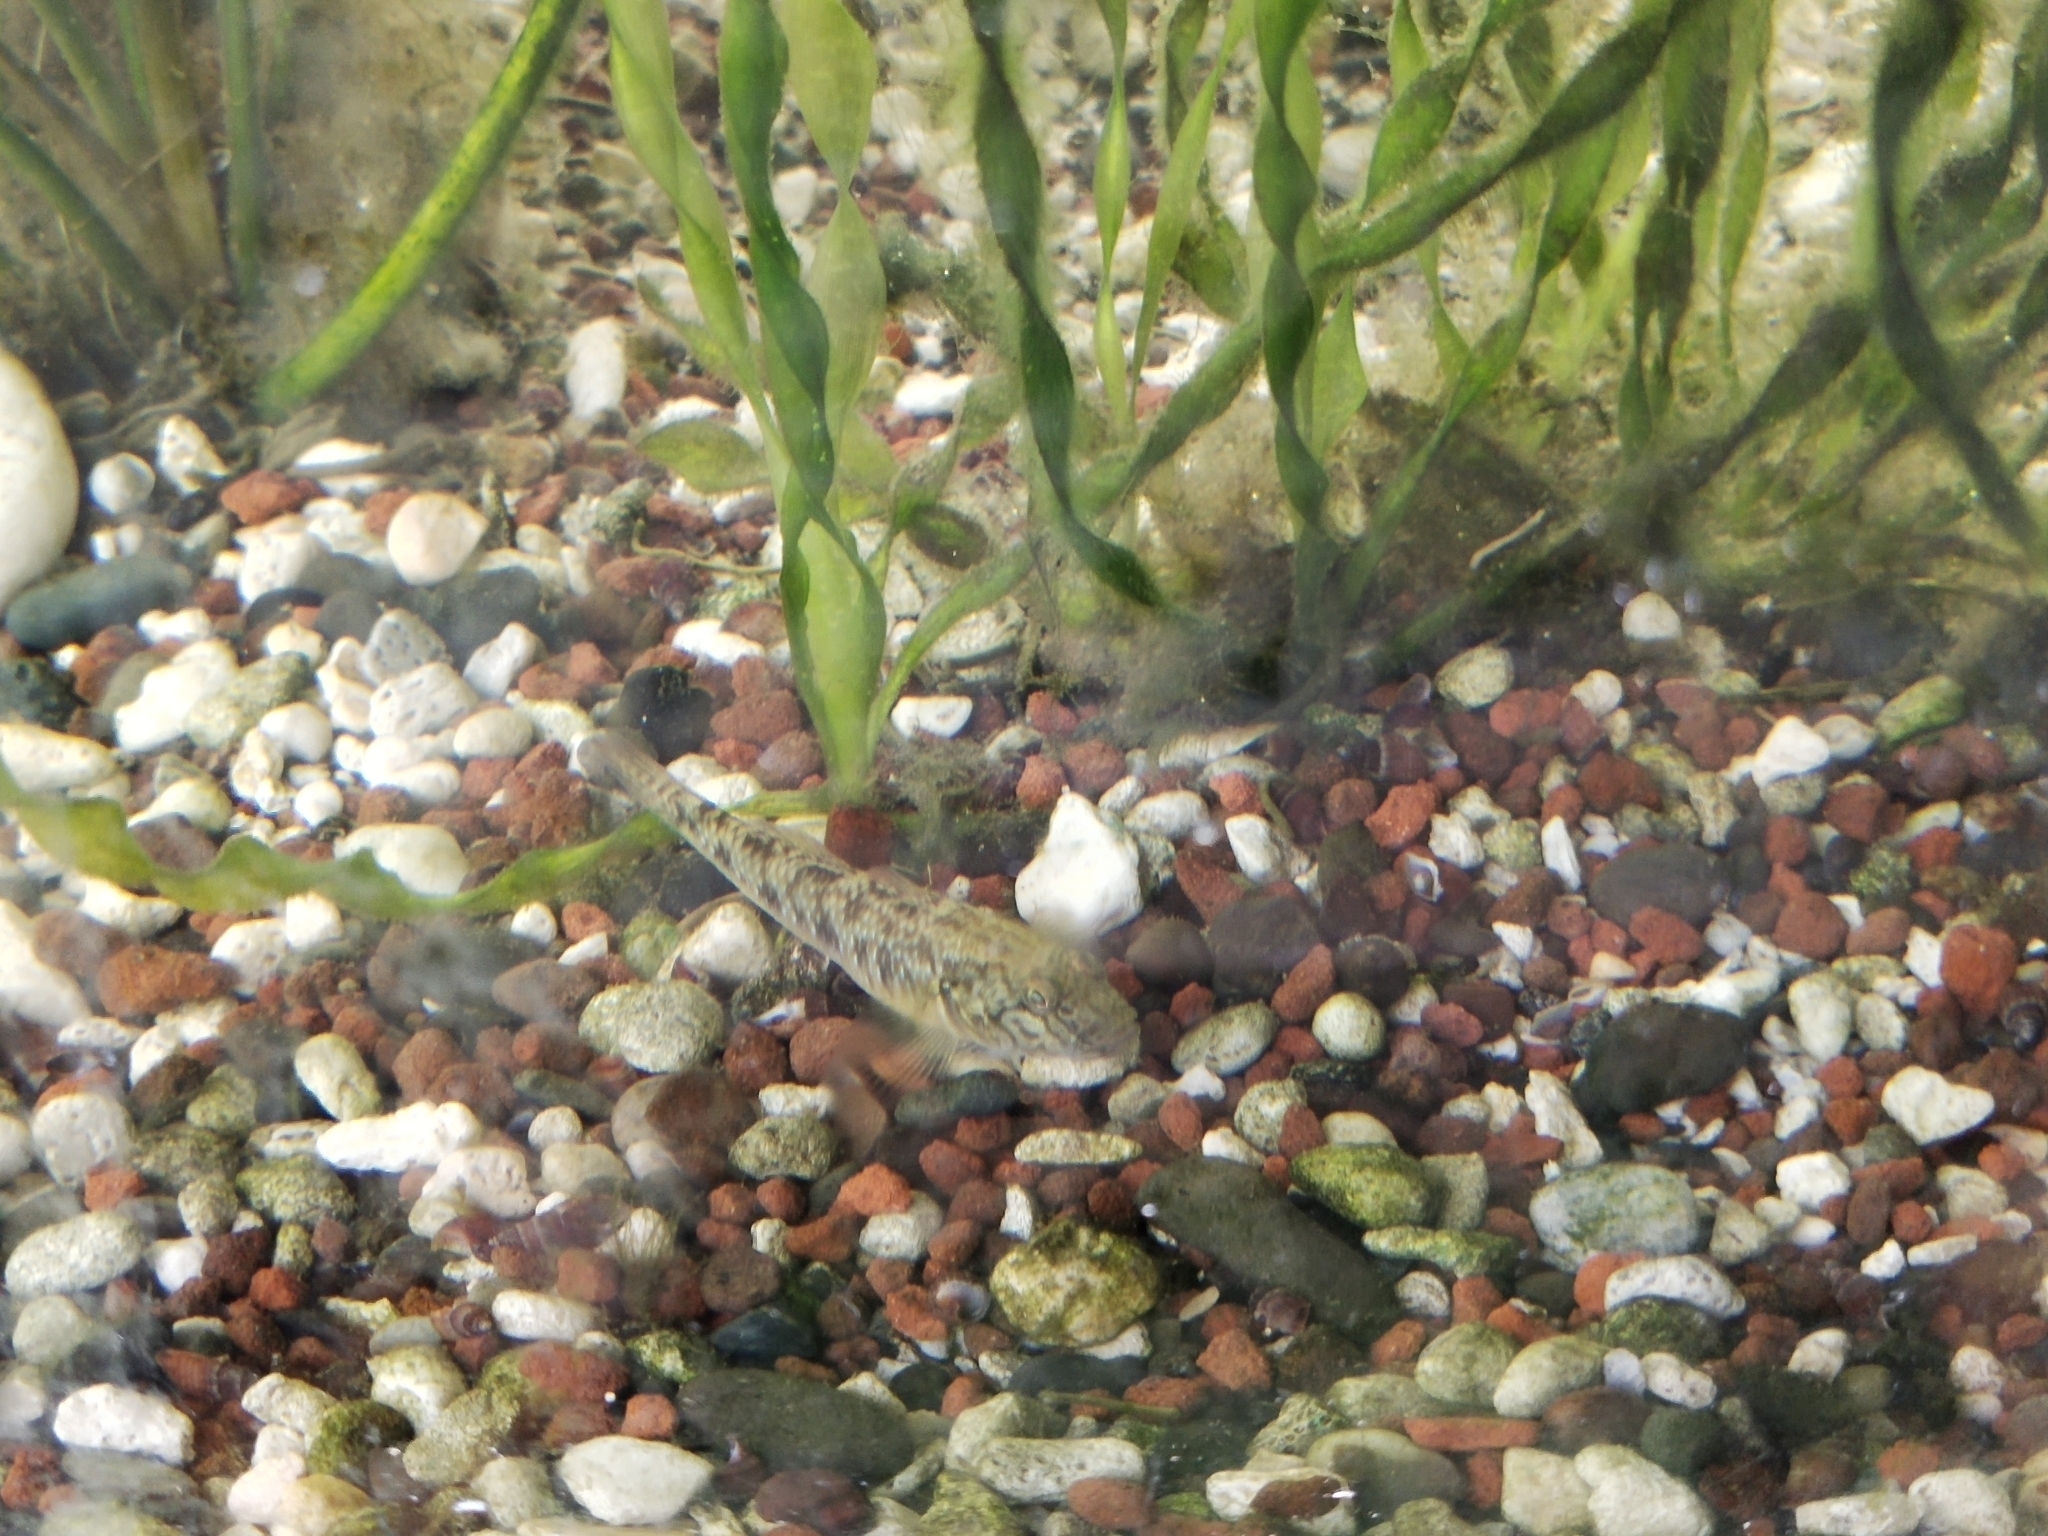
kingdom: Animalia
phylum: Chordata
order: Perciformes
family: Gobiidae
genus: Rhinogobius
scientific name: Rhinogobius similis
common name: Amur goby
